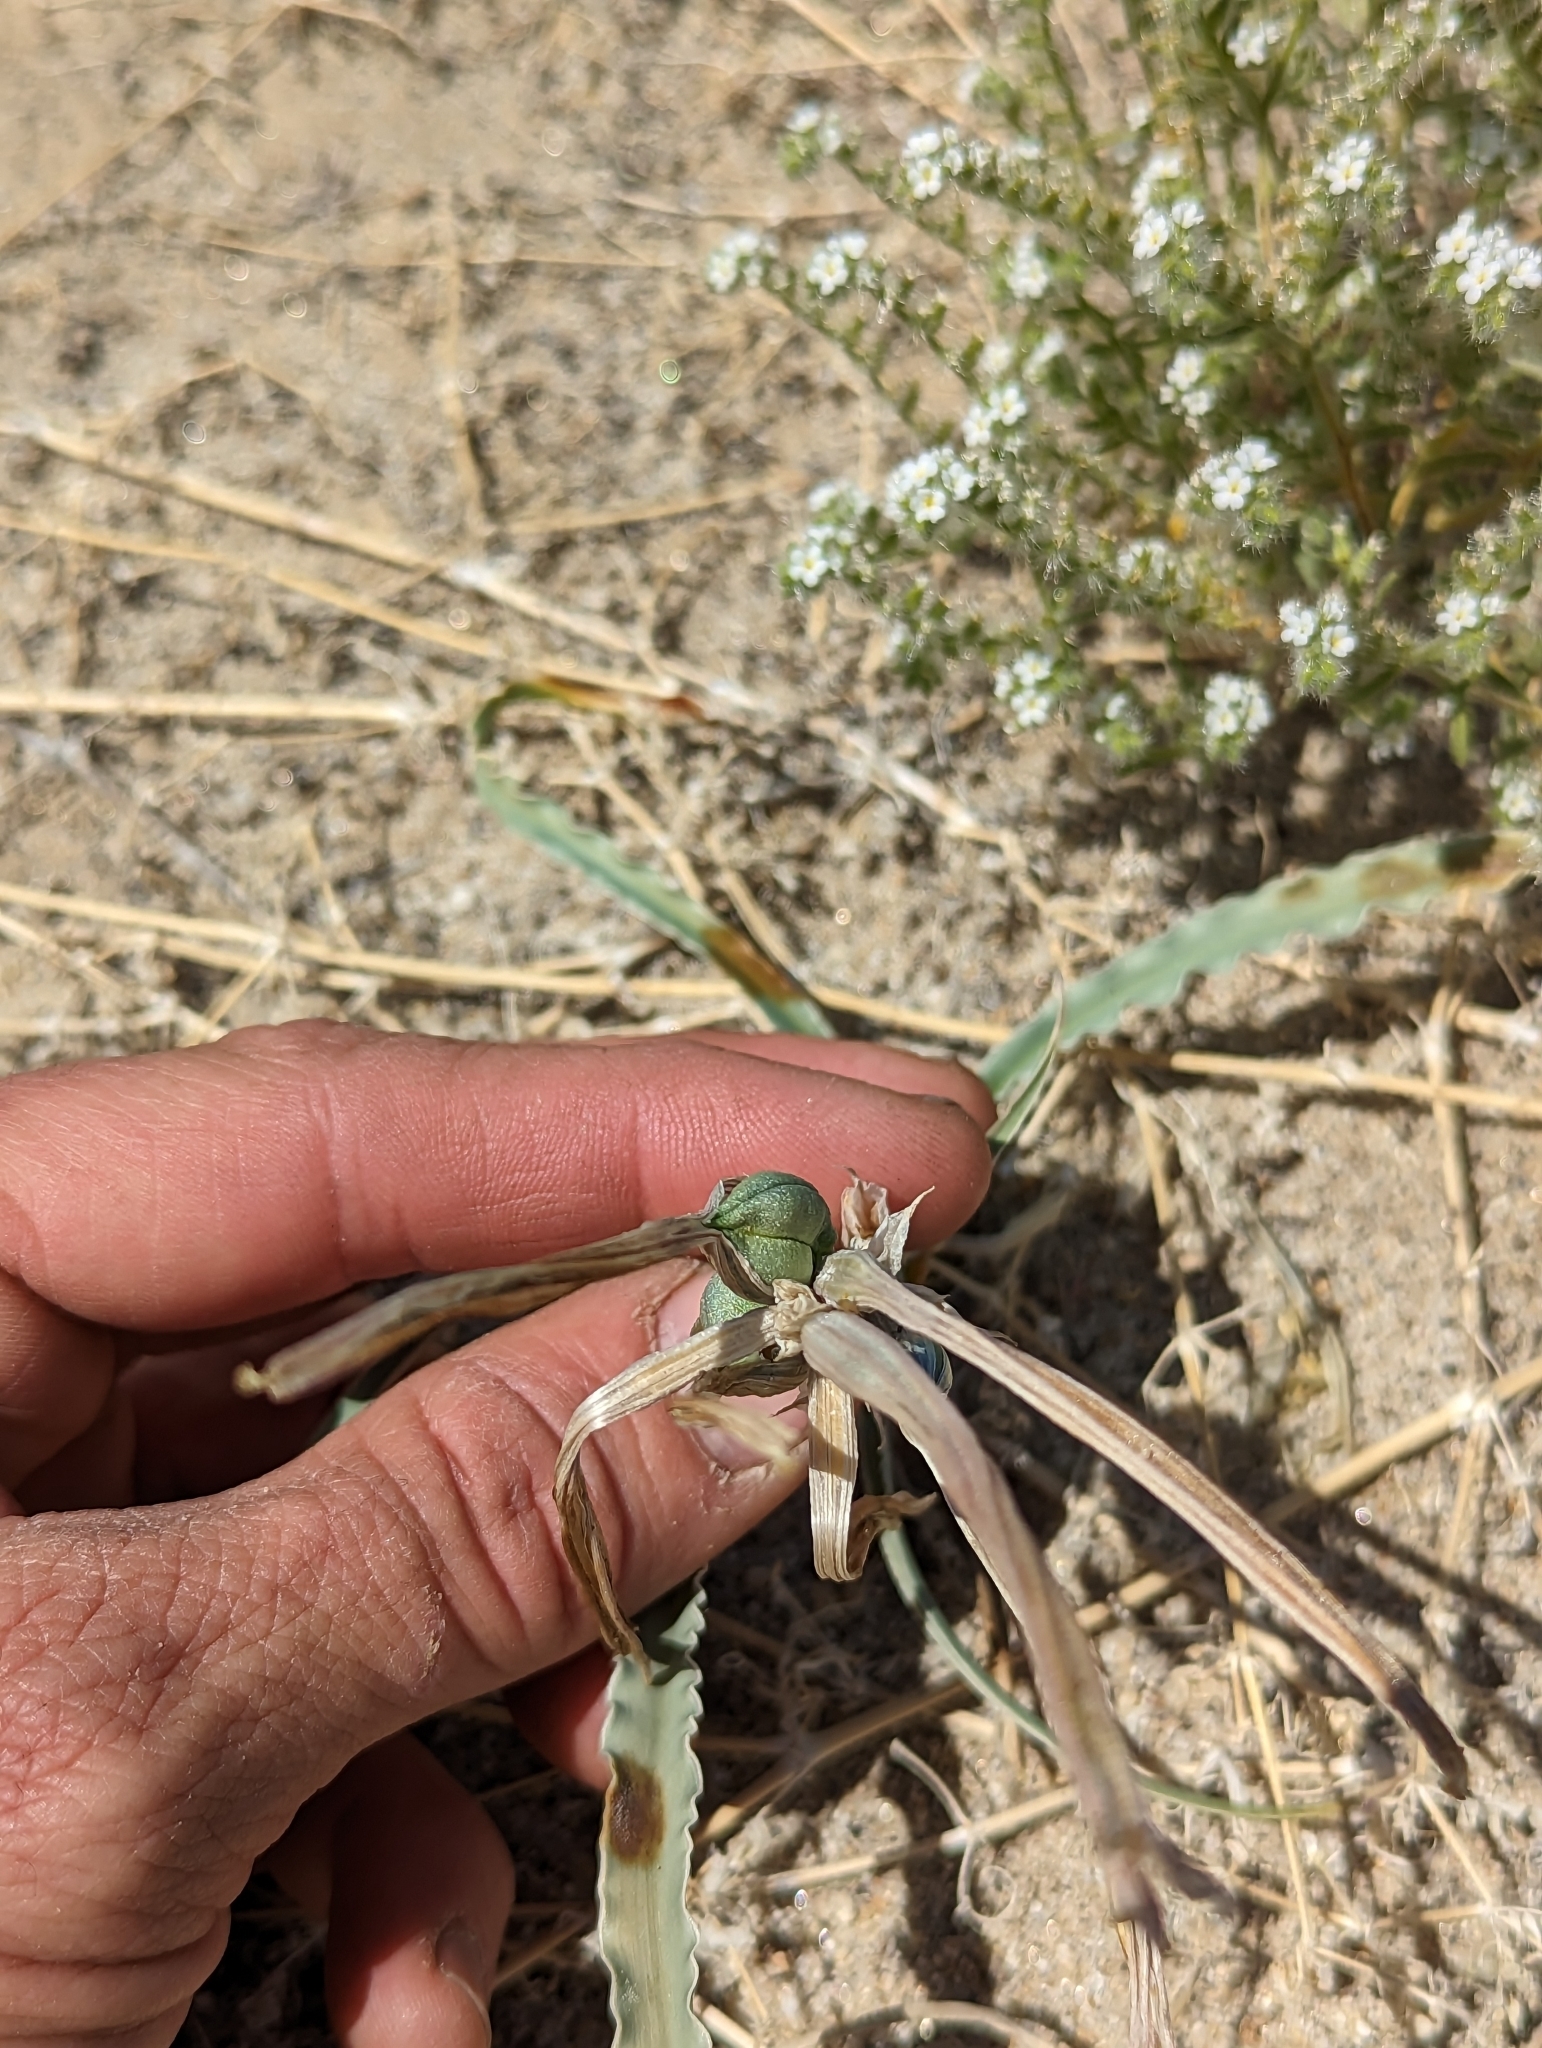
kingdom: Plantae
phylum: Tracheophyta
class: Liliopsida
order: Asparagales
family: Asparagaceae
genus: Hesperocallis
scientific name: Hesperocallis undulata
